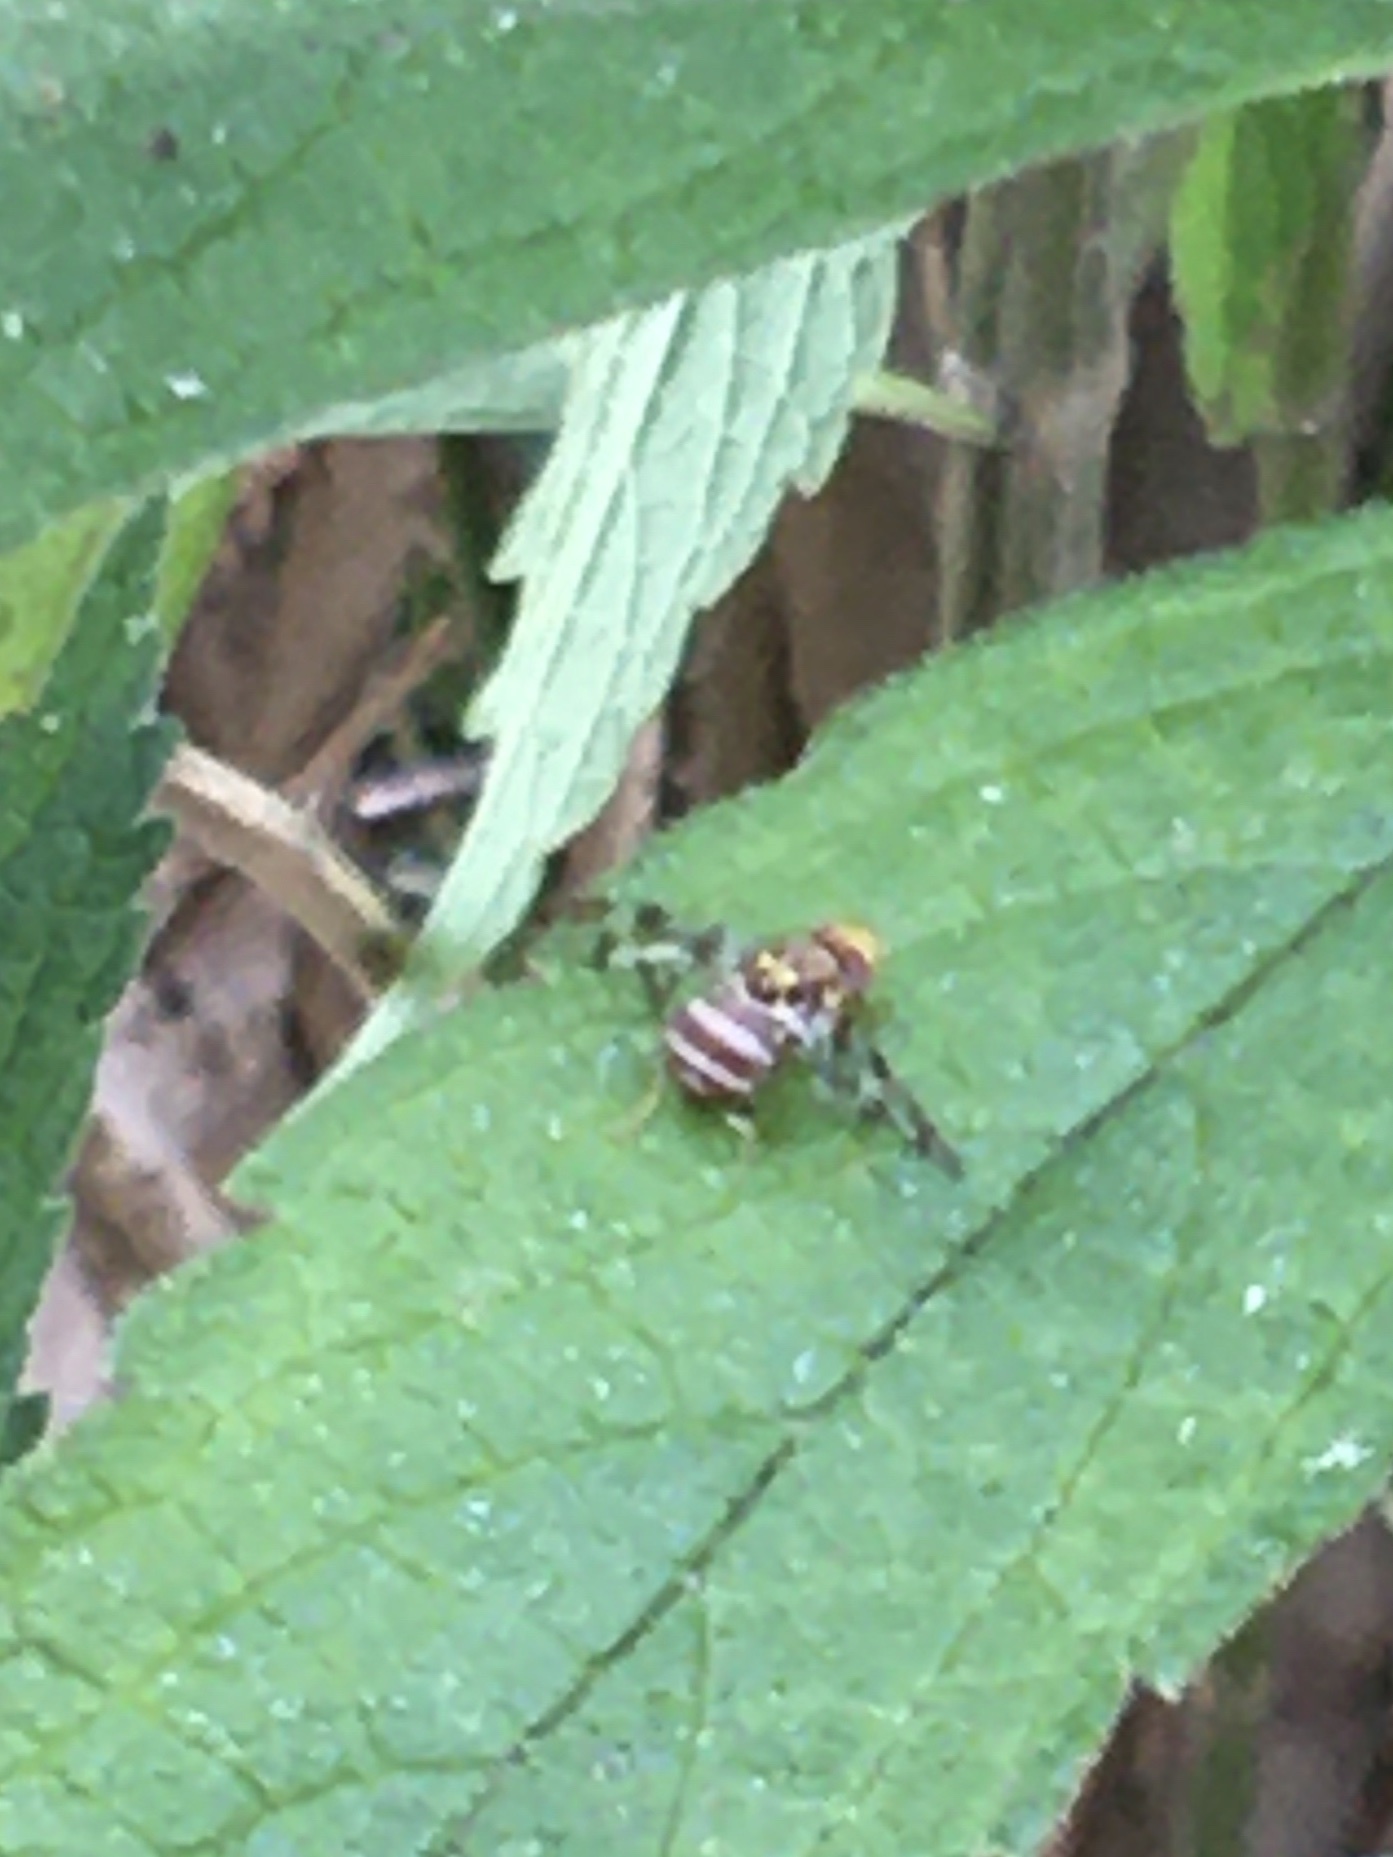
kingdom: Animalia
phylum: Arthropoda
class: Insecta
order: Diptera
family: Tephritidae
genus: Ceratitis
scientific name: Ceratitis quilicii
